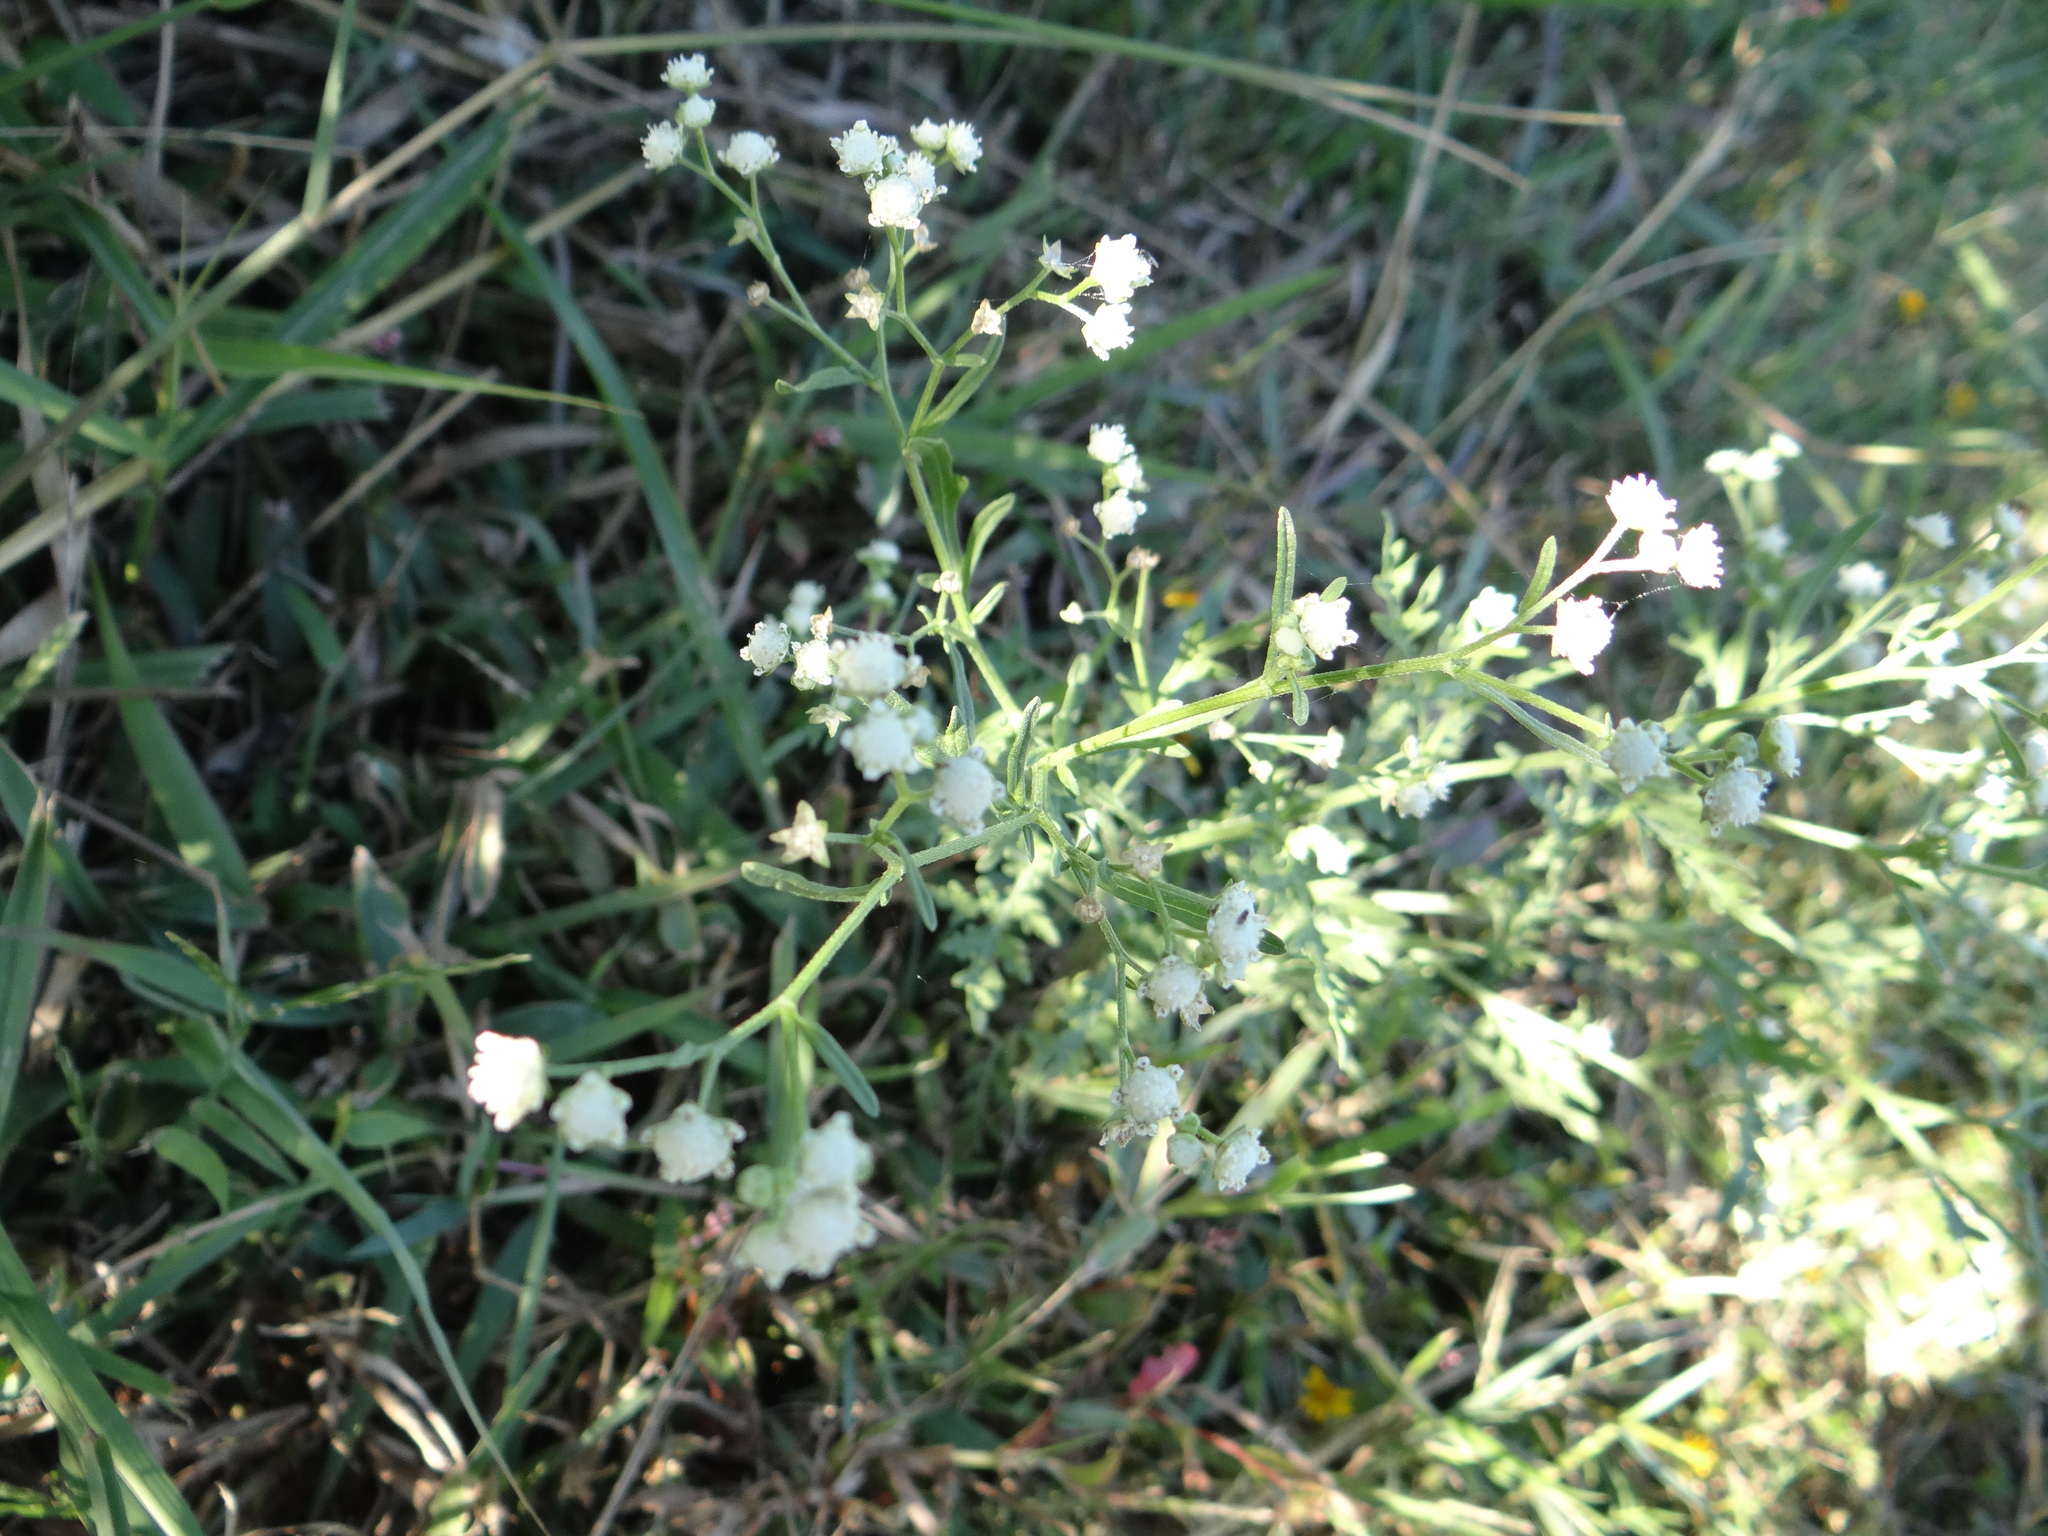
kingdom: Plantae
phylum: Tracheophyta
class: Magnoliopsida
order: Asterales
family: Asteraceae
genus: Parthenium
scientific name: Parthenium hysterophorus
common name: Santa maria feverfew
